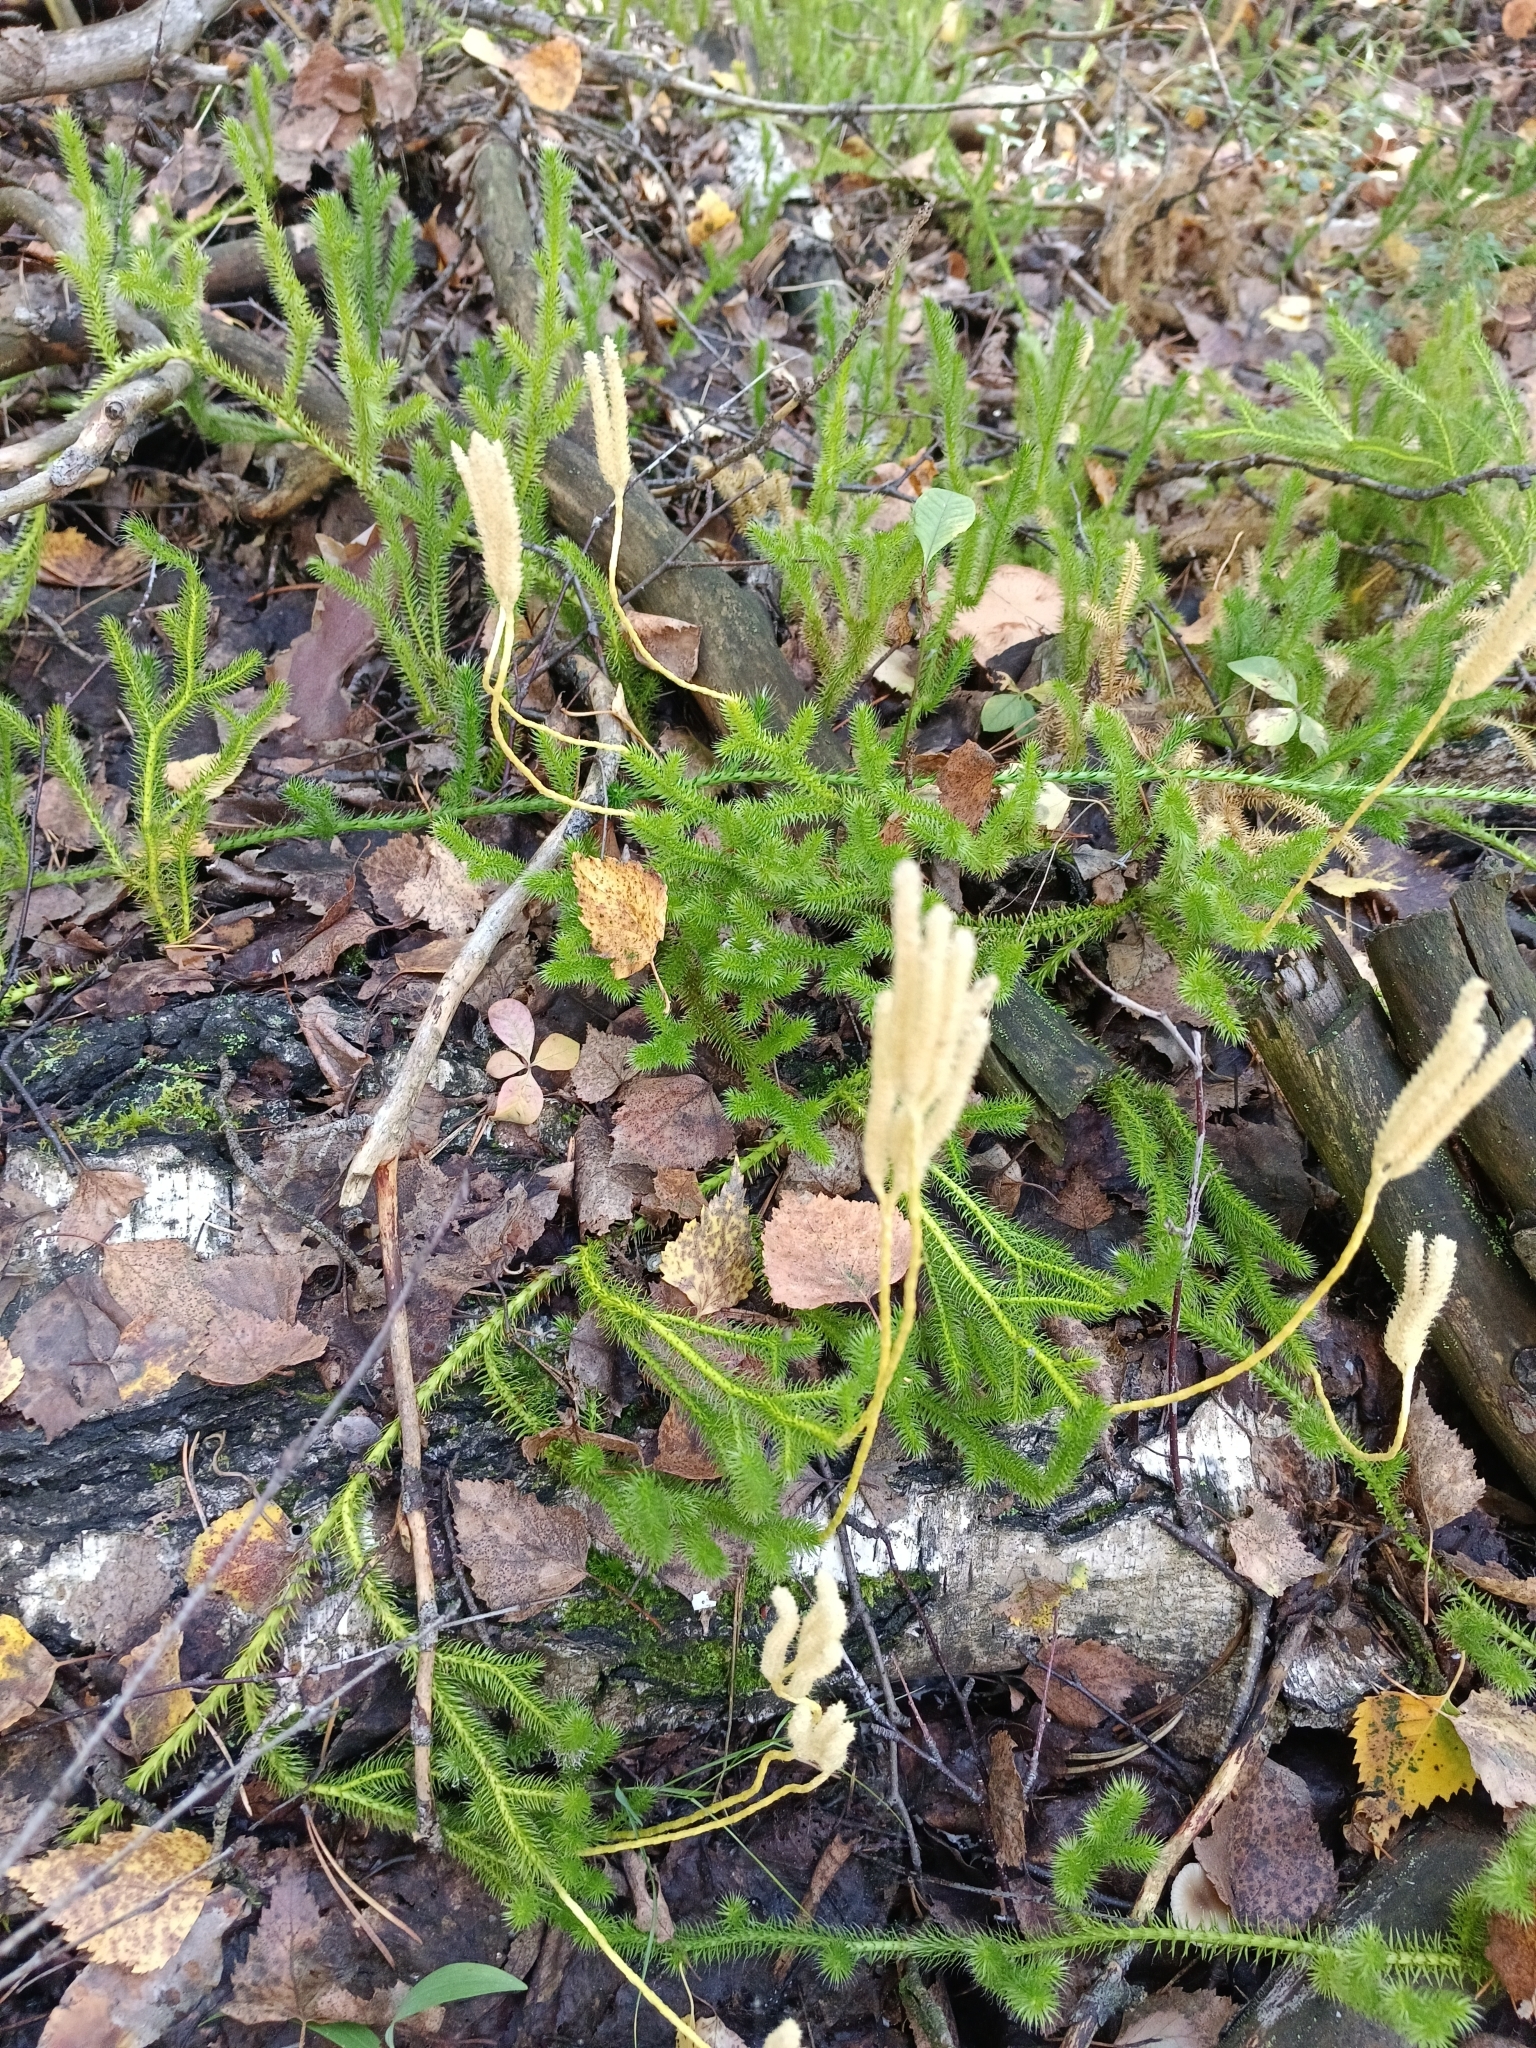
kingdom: Plantae
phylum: Tracheophyta
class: Lycopodiopsida
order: Lycopodiales
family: Lycopodiaceae
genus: Lycopodium
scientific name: Lycopodium clavatum
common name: Stag's-horn clubmoss
